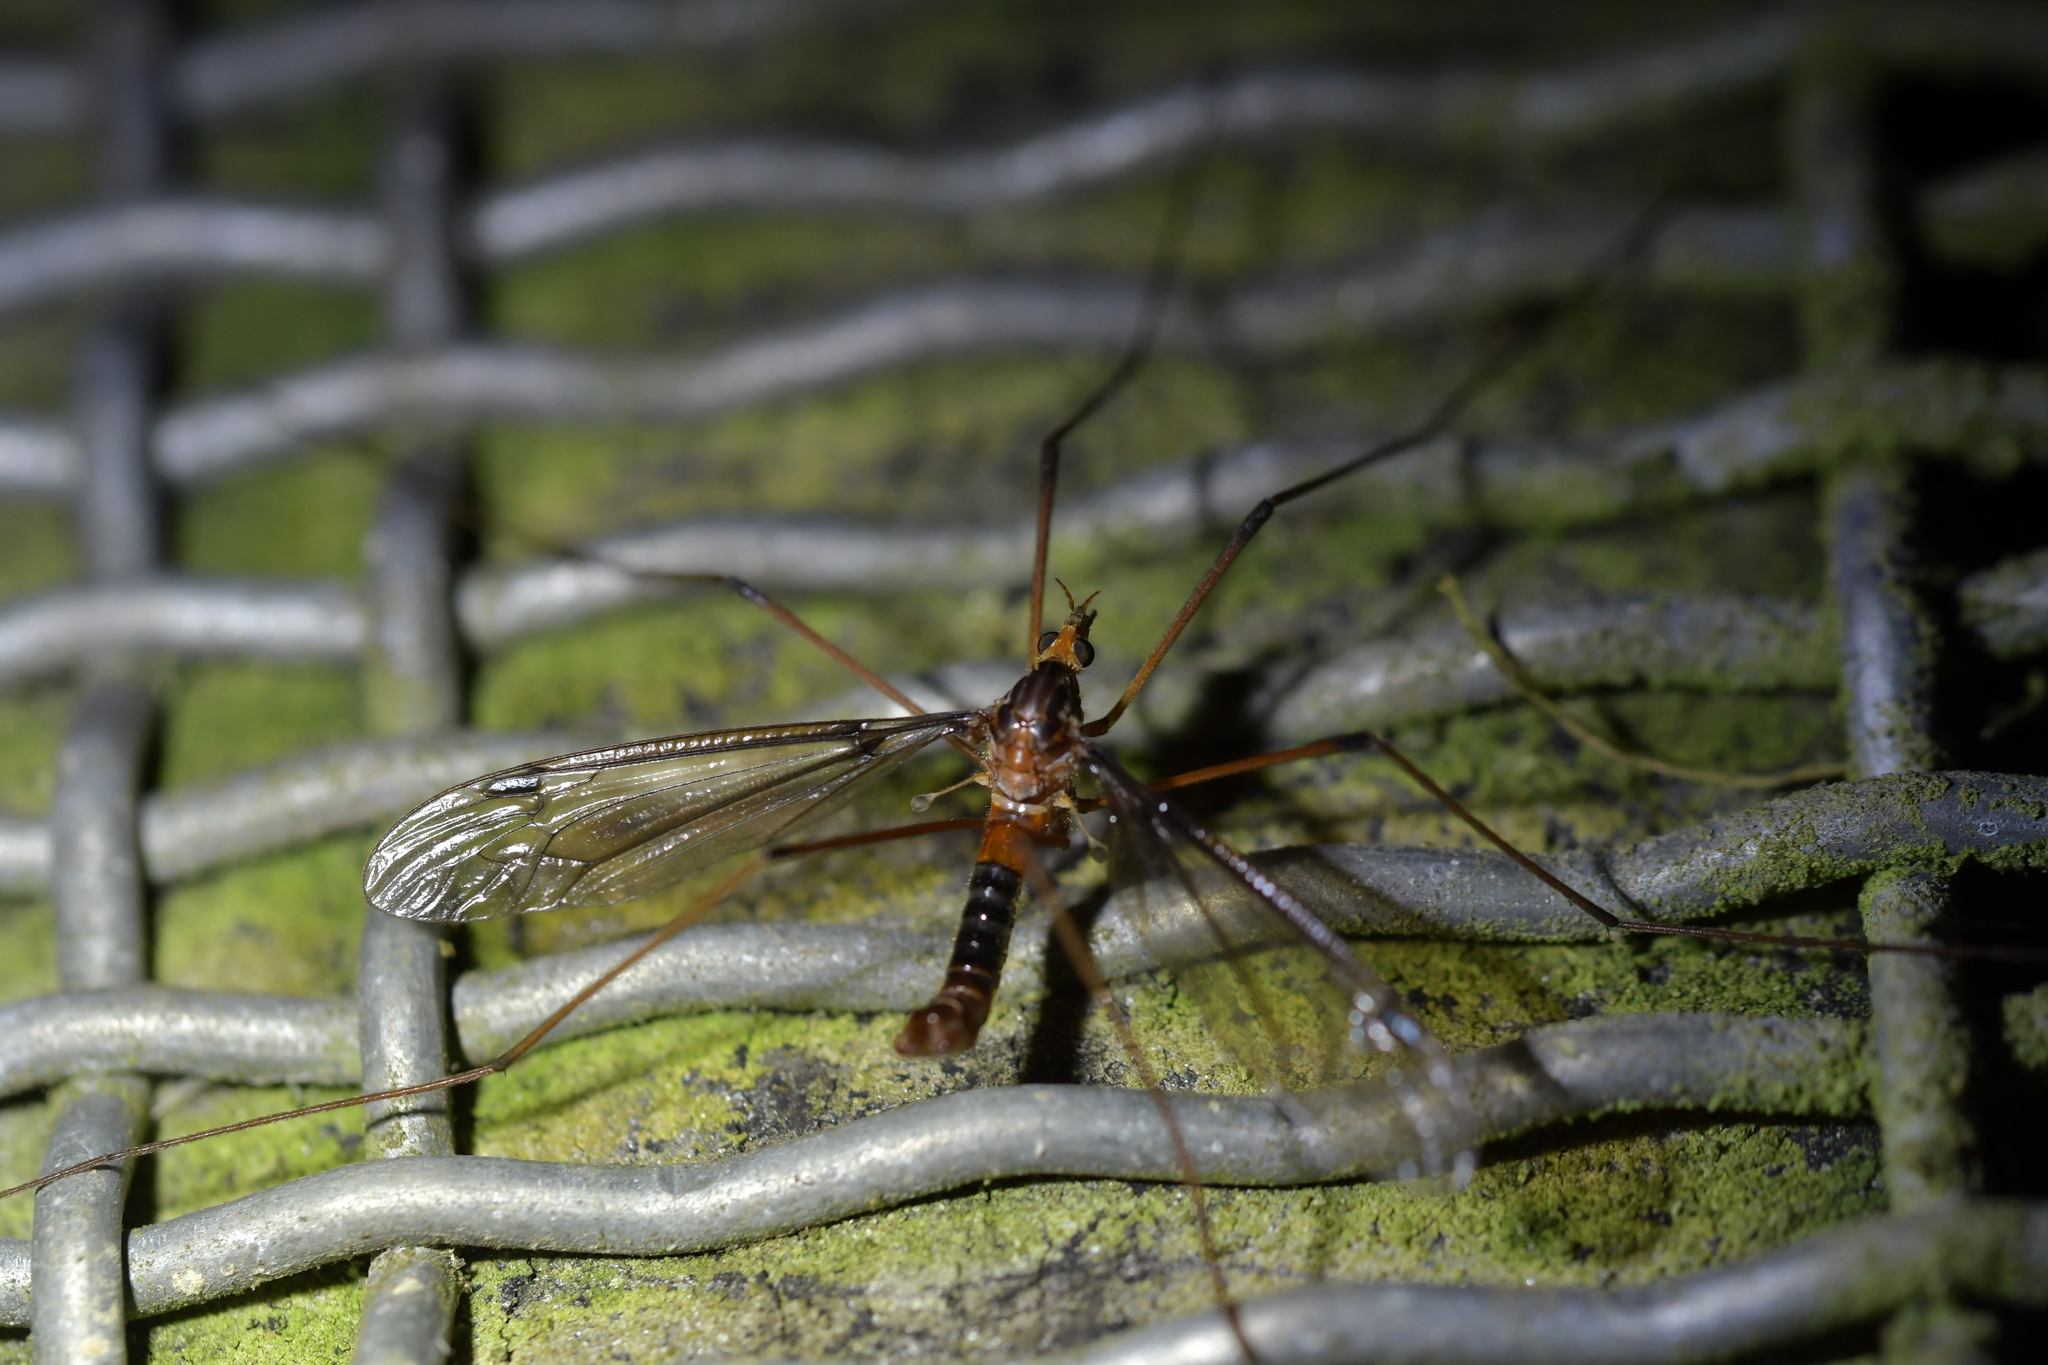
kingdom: Animalia
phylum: Arthropoda
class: Insecta
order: Diptera
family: Tipulidae
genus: Leptotarsus
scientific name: Leptotarsus heterogamus
